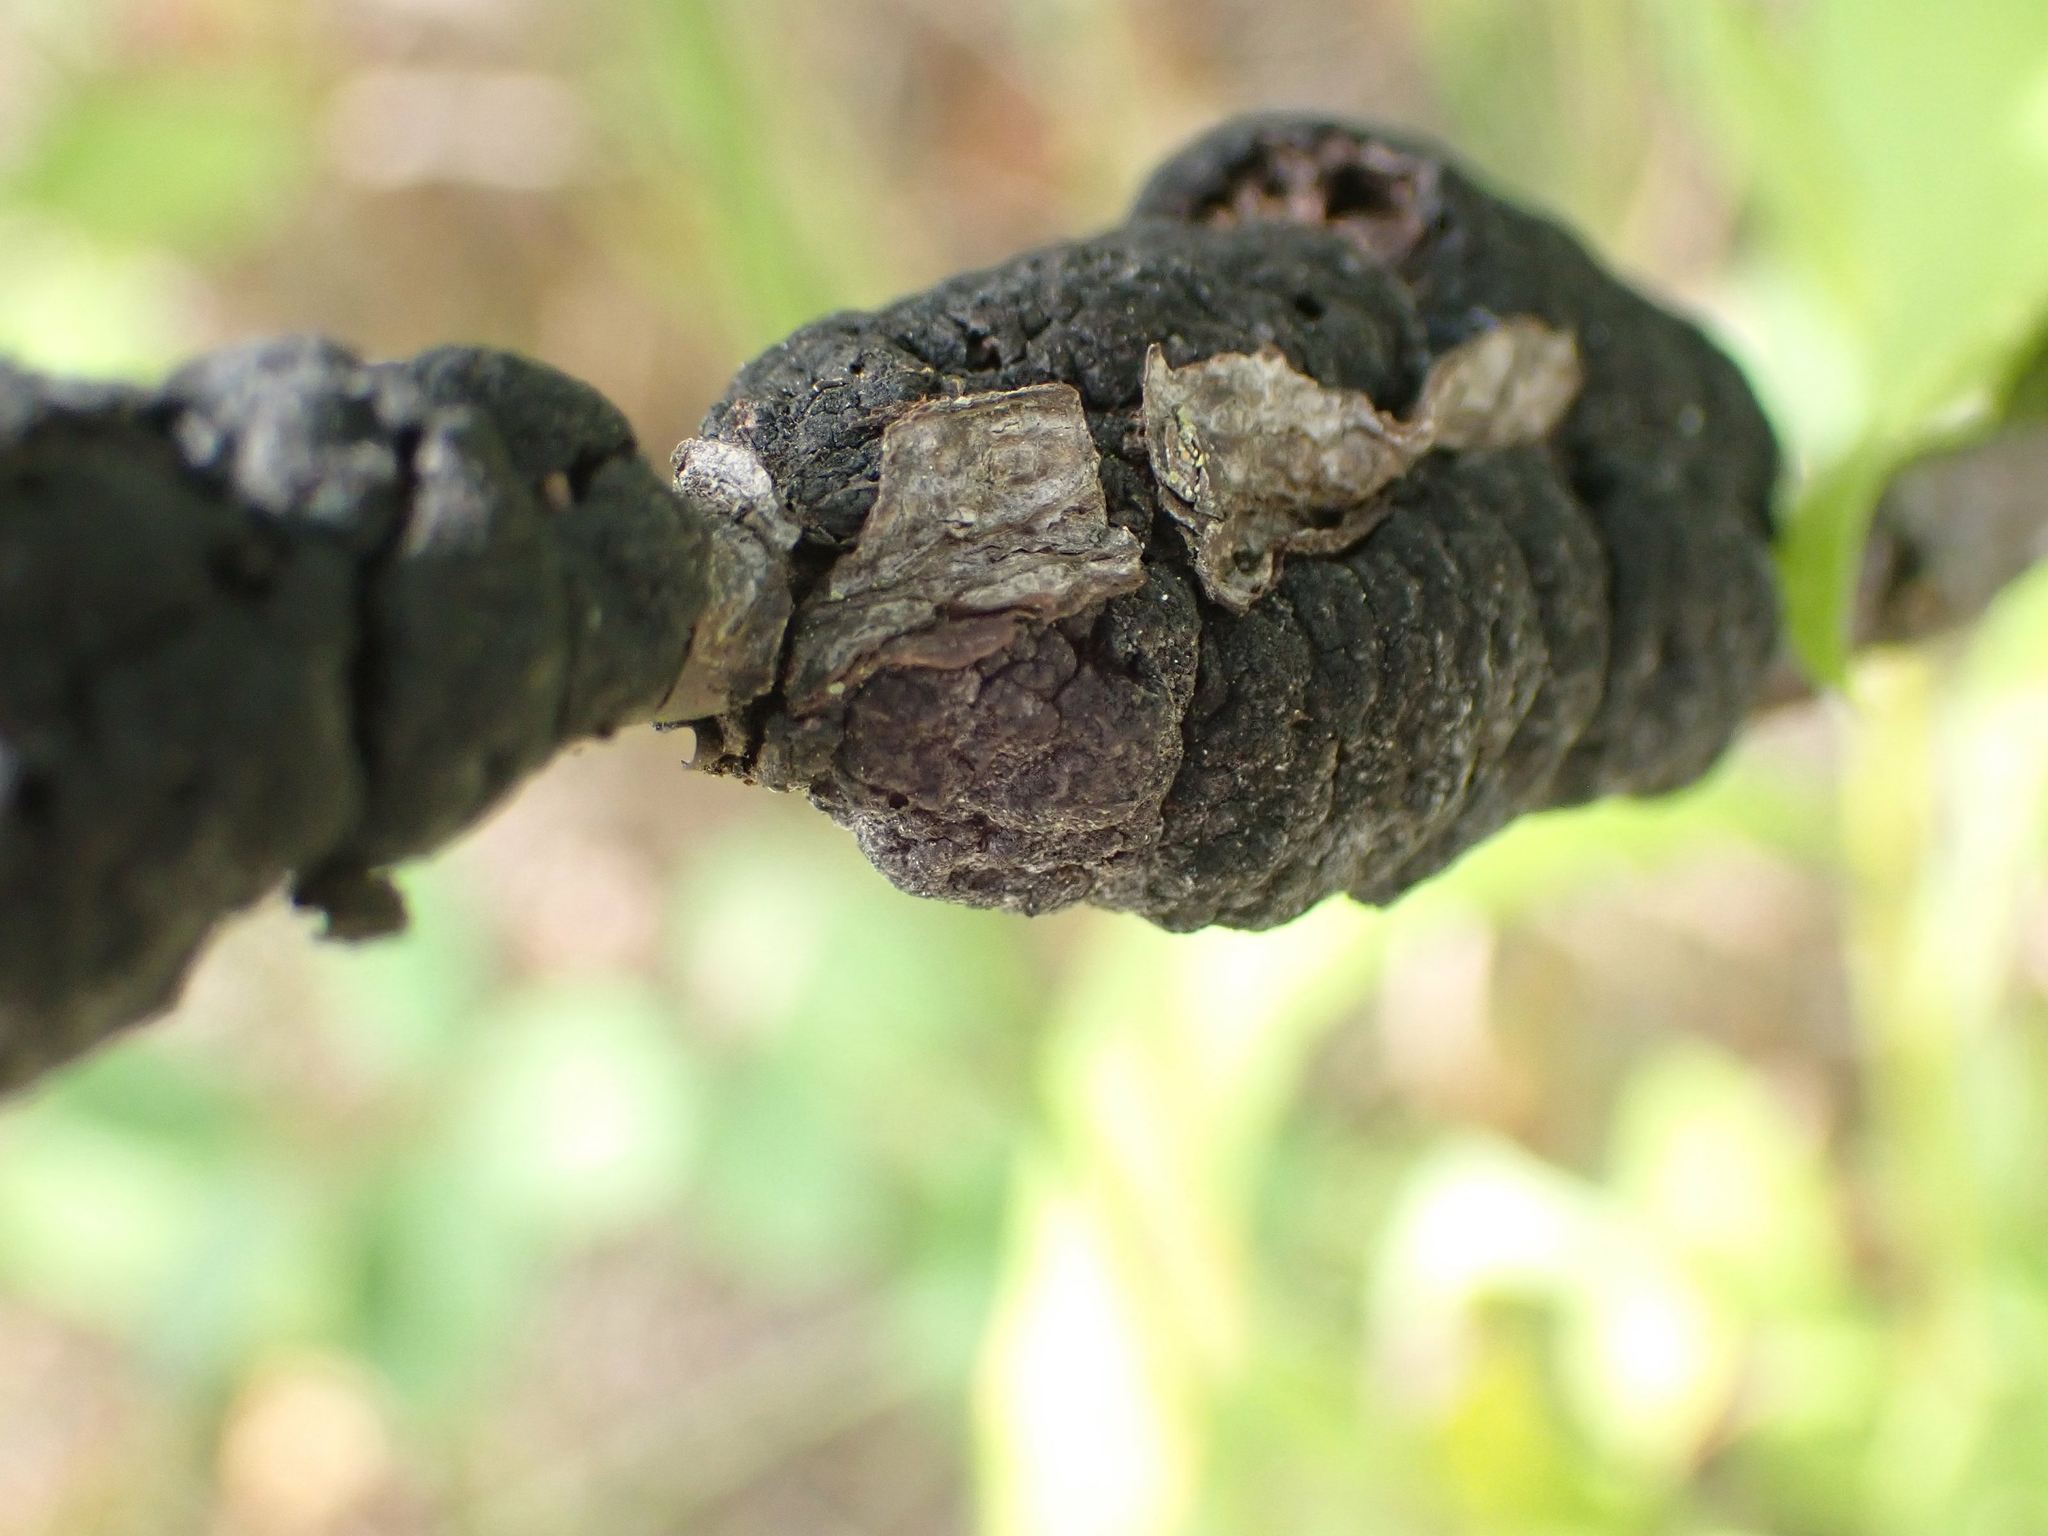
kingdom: Fungi
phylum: Ascomycota
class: Dothideomycetes
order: Venturiales
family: Venturiaceae
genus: Apiosporina
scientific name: Apiosporina morbosa
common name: Black knot
